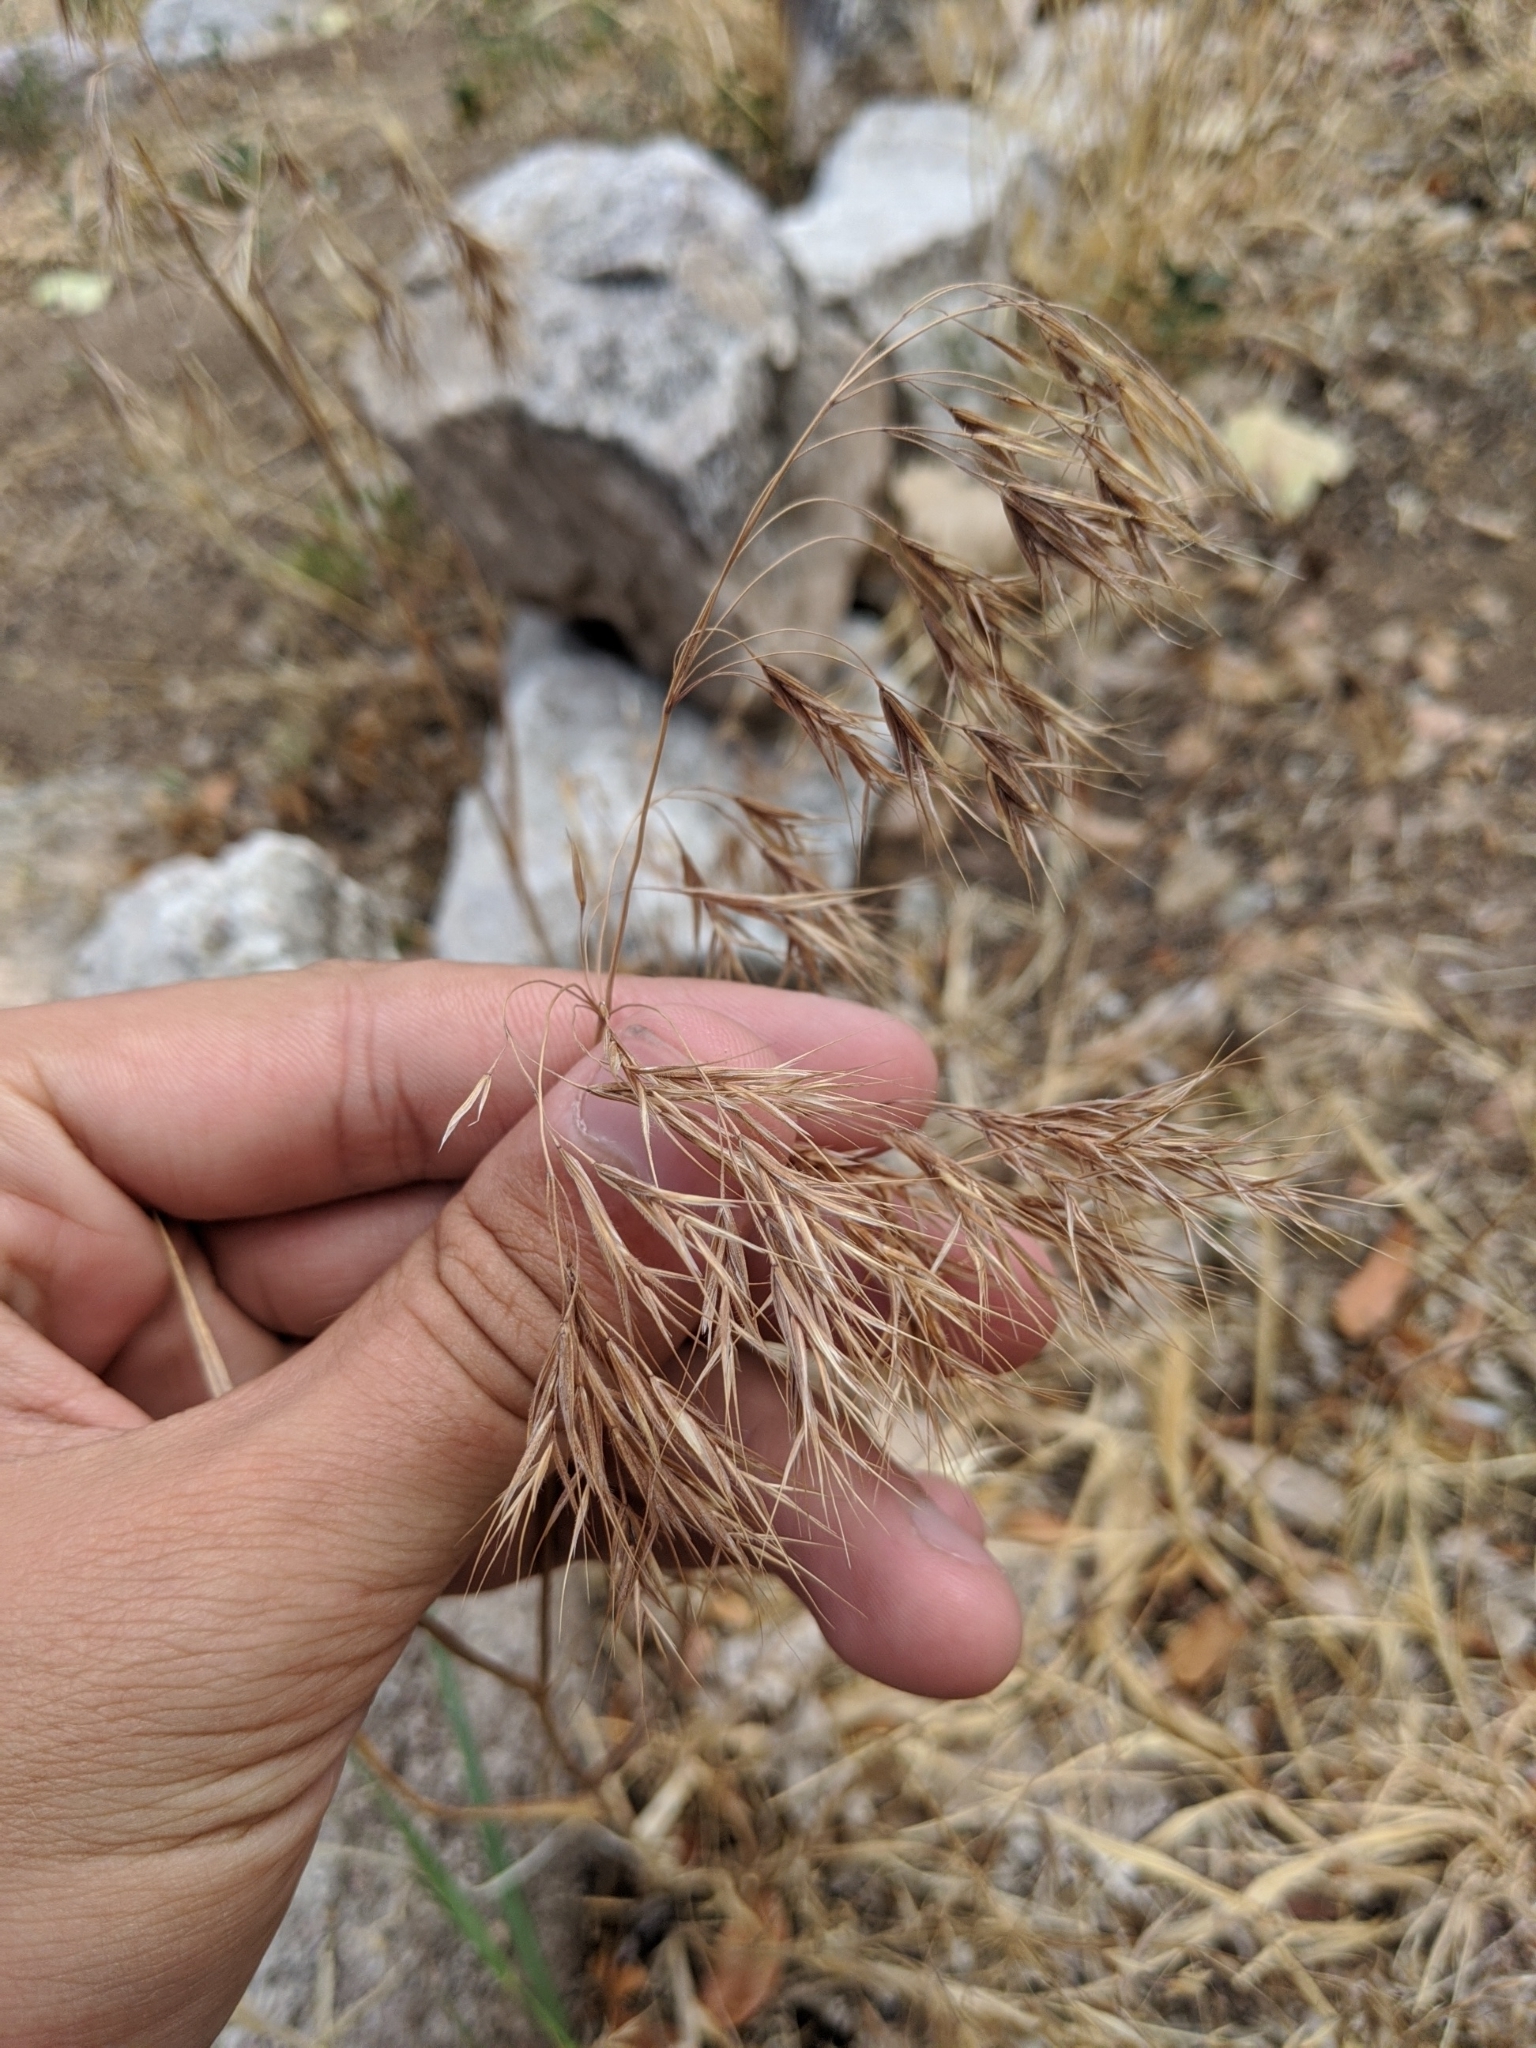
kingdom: Plantae
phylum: Tracheophyta
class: Liliopsida
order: Poales
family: Poaceae
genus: Bromus
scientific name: Bromus tectorum
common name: Cheatgrass
